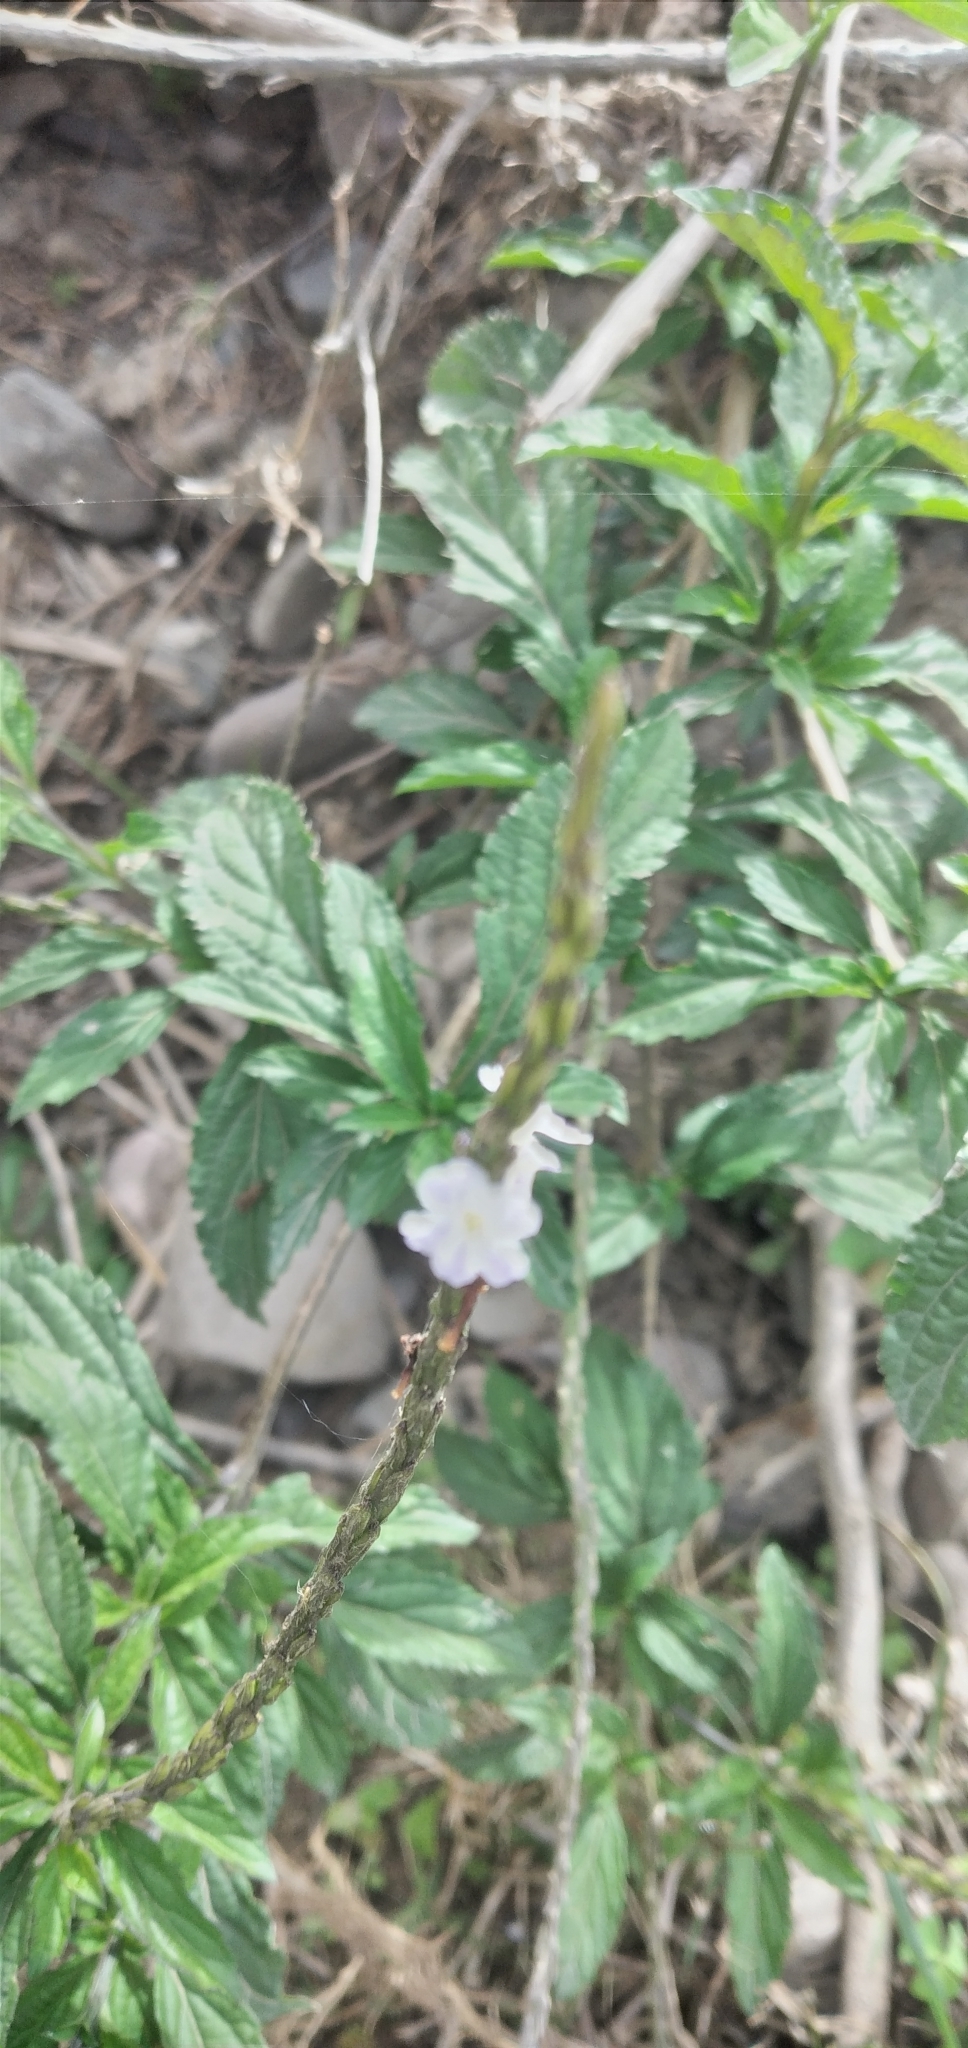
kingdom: Plantae
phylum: Tracheophyta
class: Magnoliopsida
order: Lamiales
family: Verbenaceae
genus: Stachytarpheta
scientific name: Stachytarpheta cayennensis
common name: Cayenne porterweed
